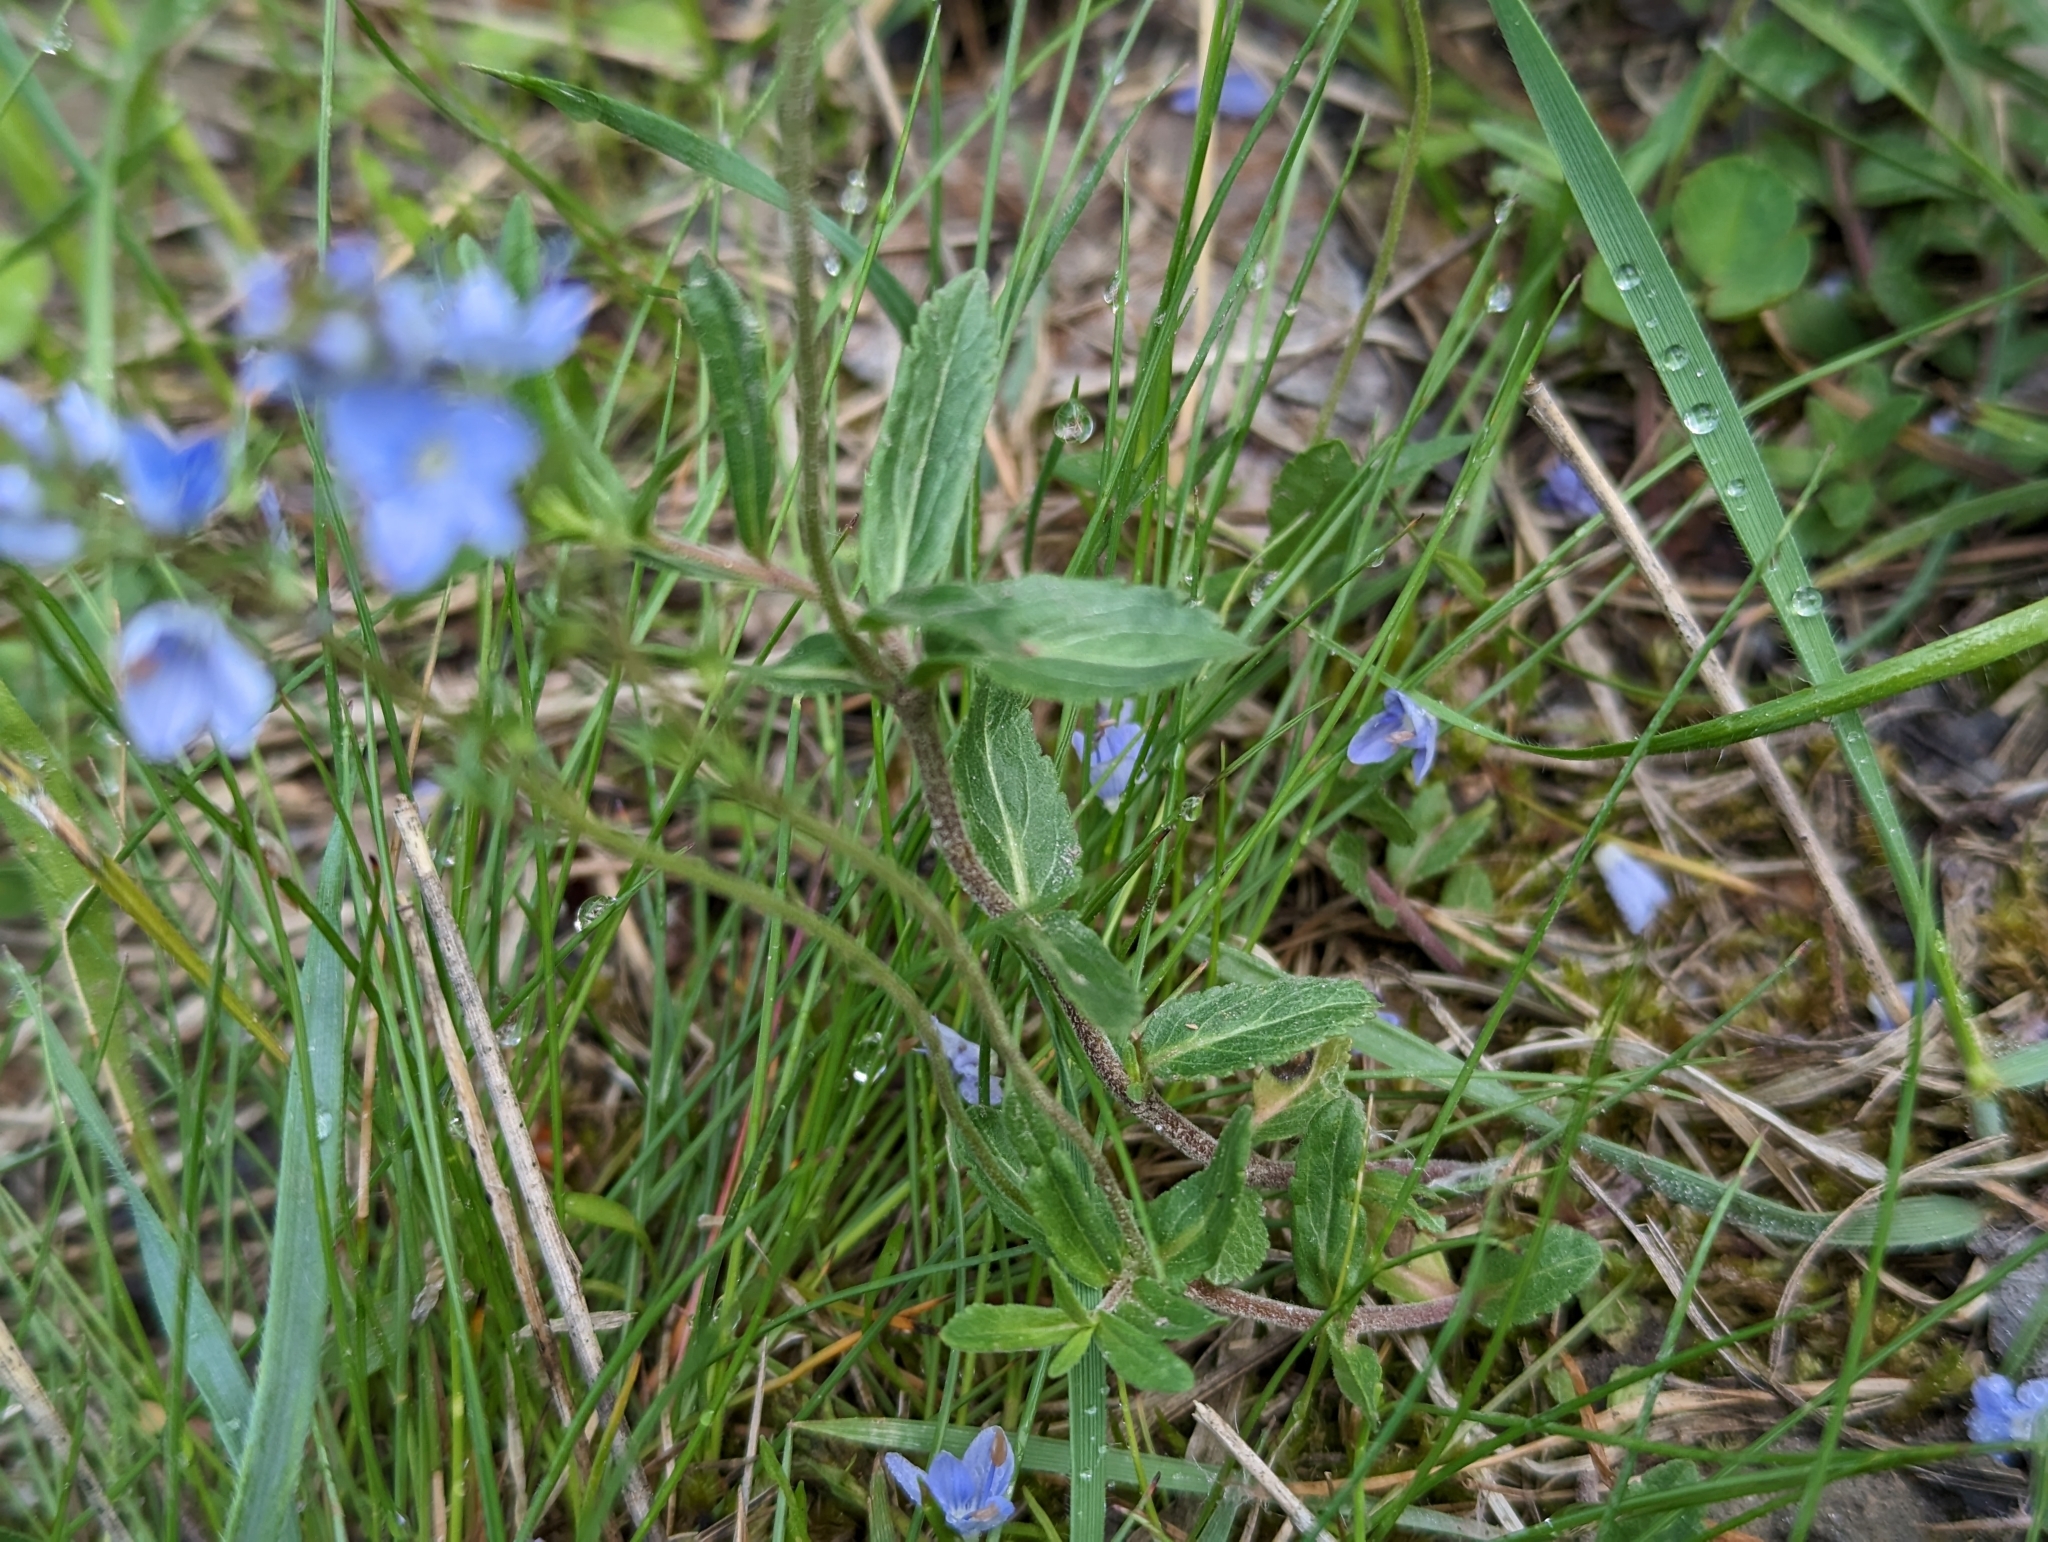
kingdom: Plantae
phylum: Tracheophyta
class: Magnoliopsida
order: Lamiales
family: Plantaginaceae
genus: Veronica
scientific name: Veronica prostrata
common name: Prostrate speedwell
